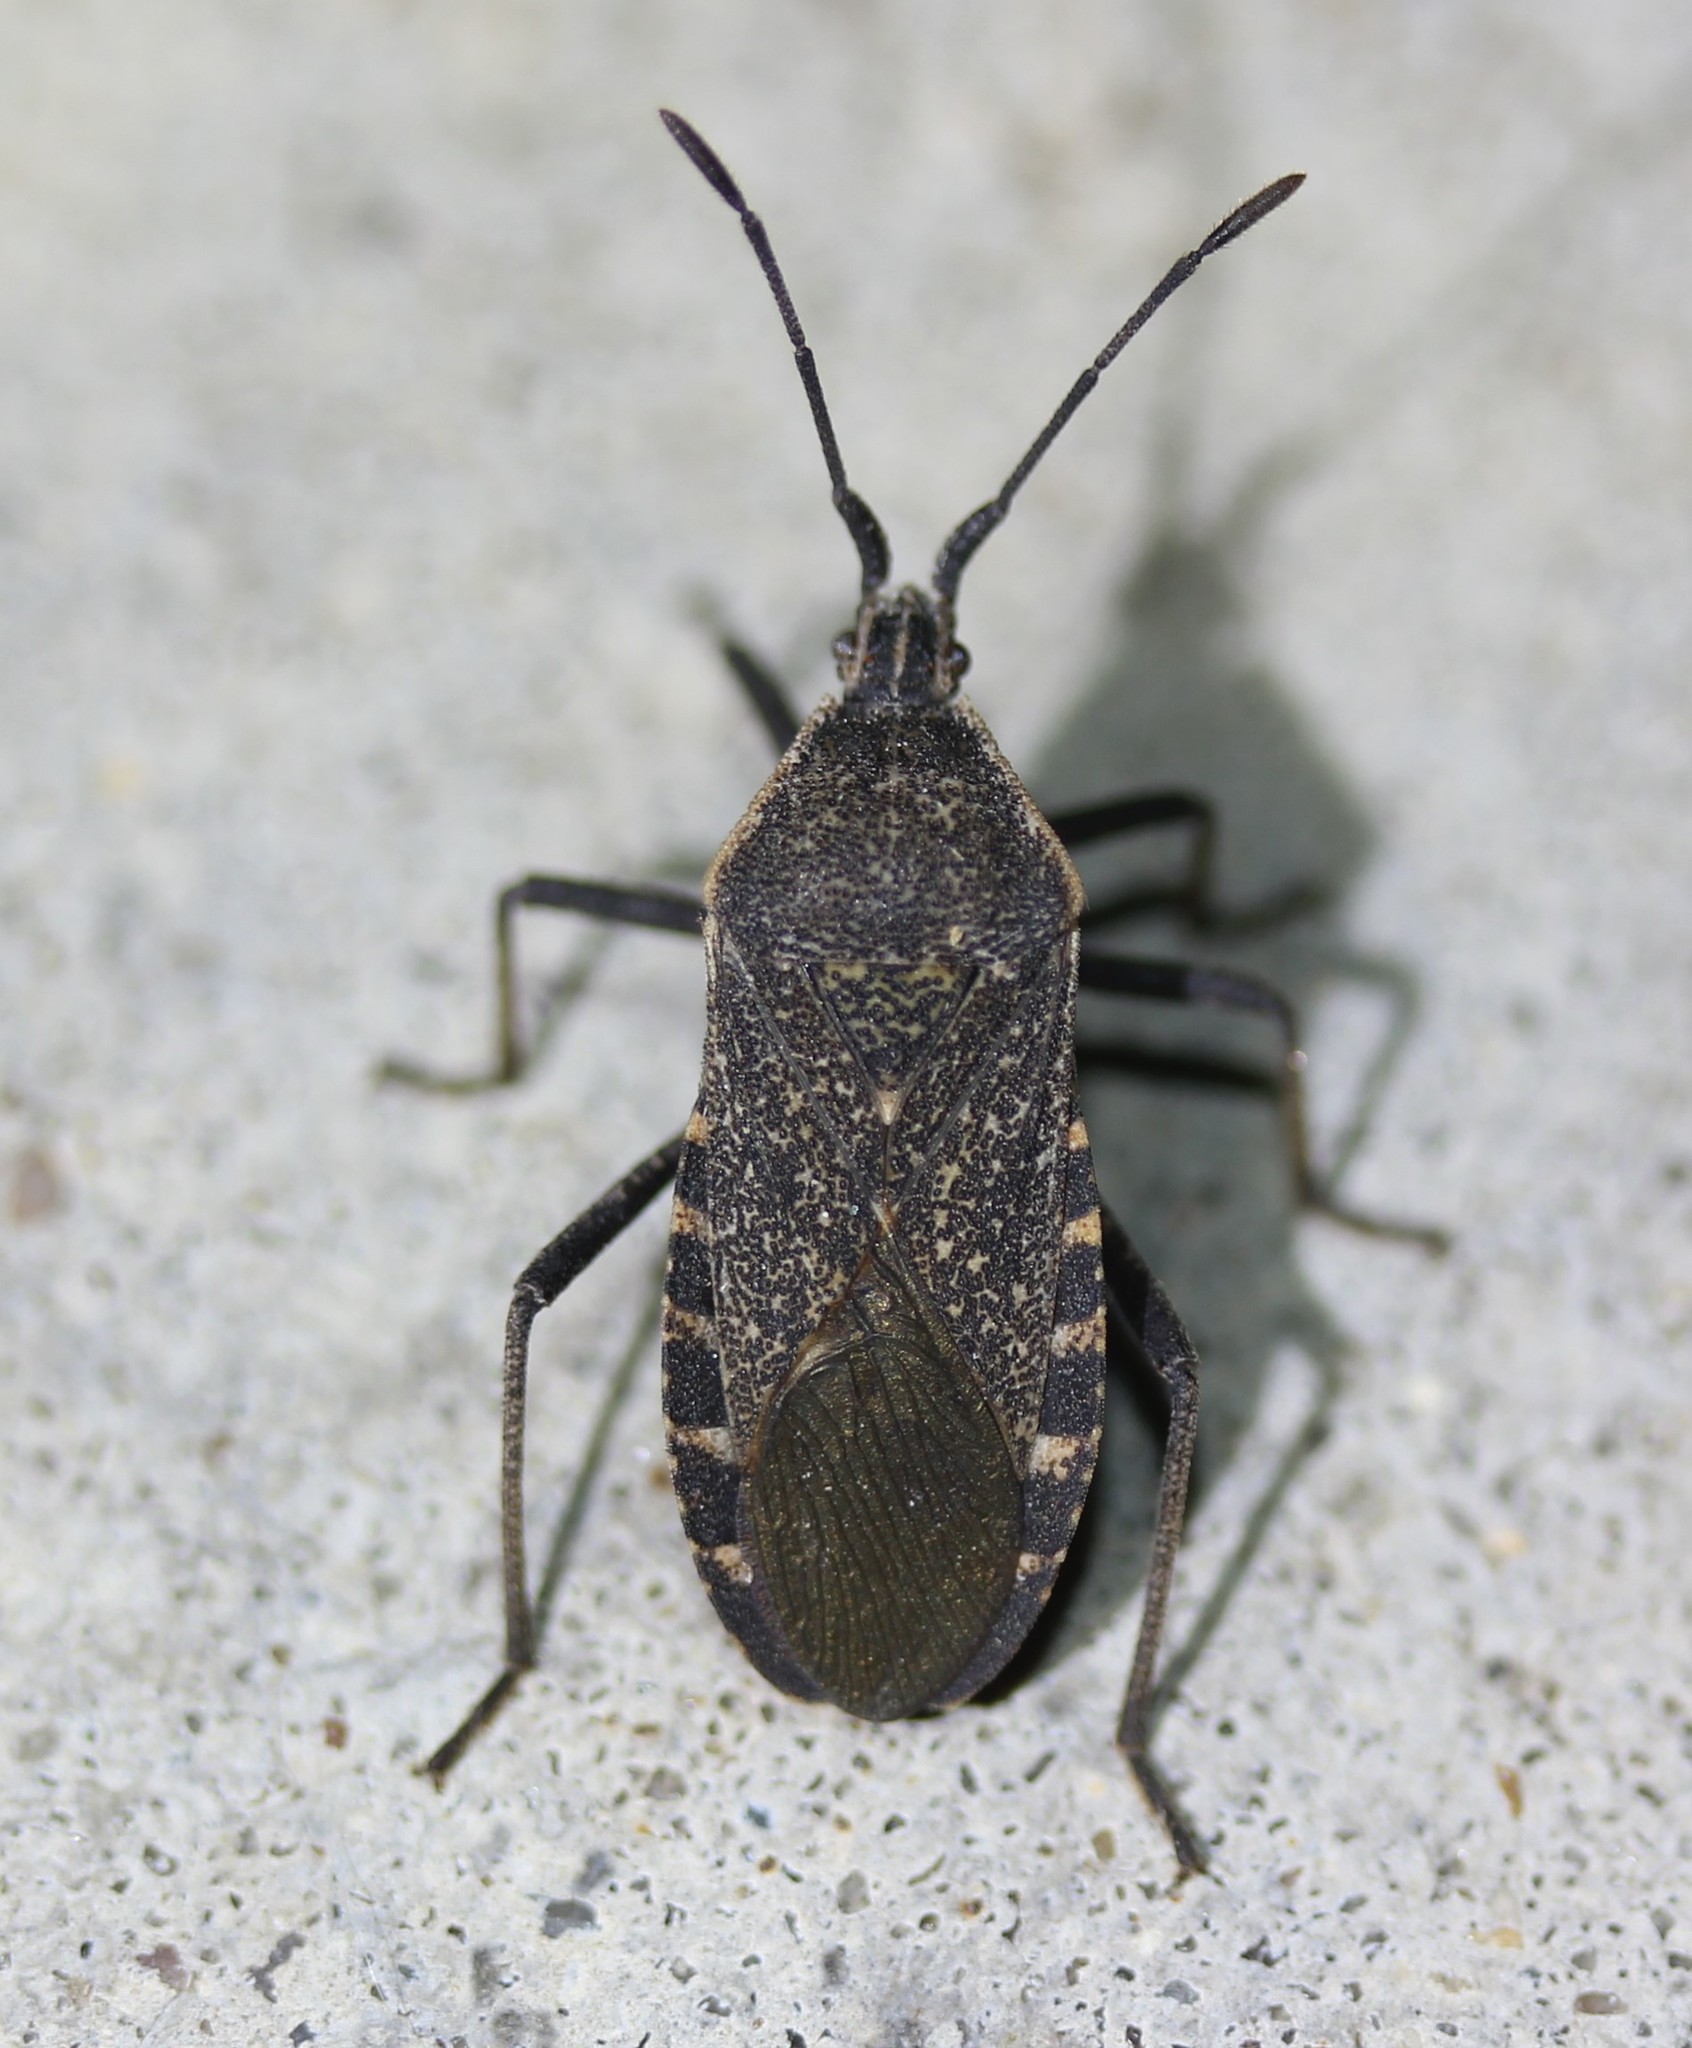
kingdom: Animalia
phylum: Arthropoda
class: Insecta
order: Hemiptera
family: Coreidae
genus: Anasa
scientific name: Anasa tristis
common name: Squash bug
